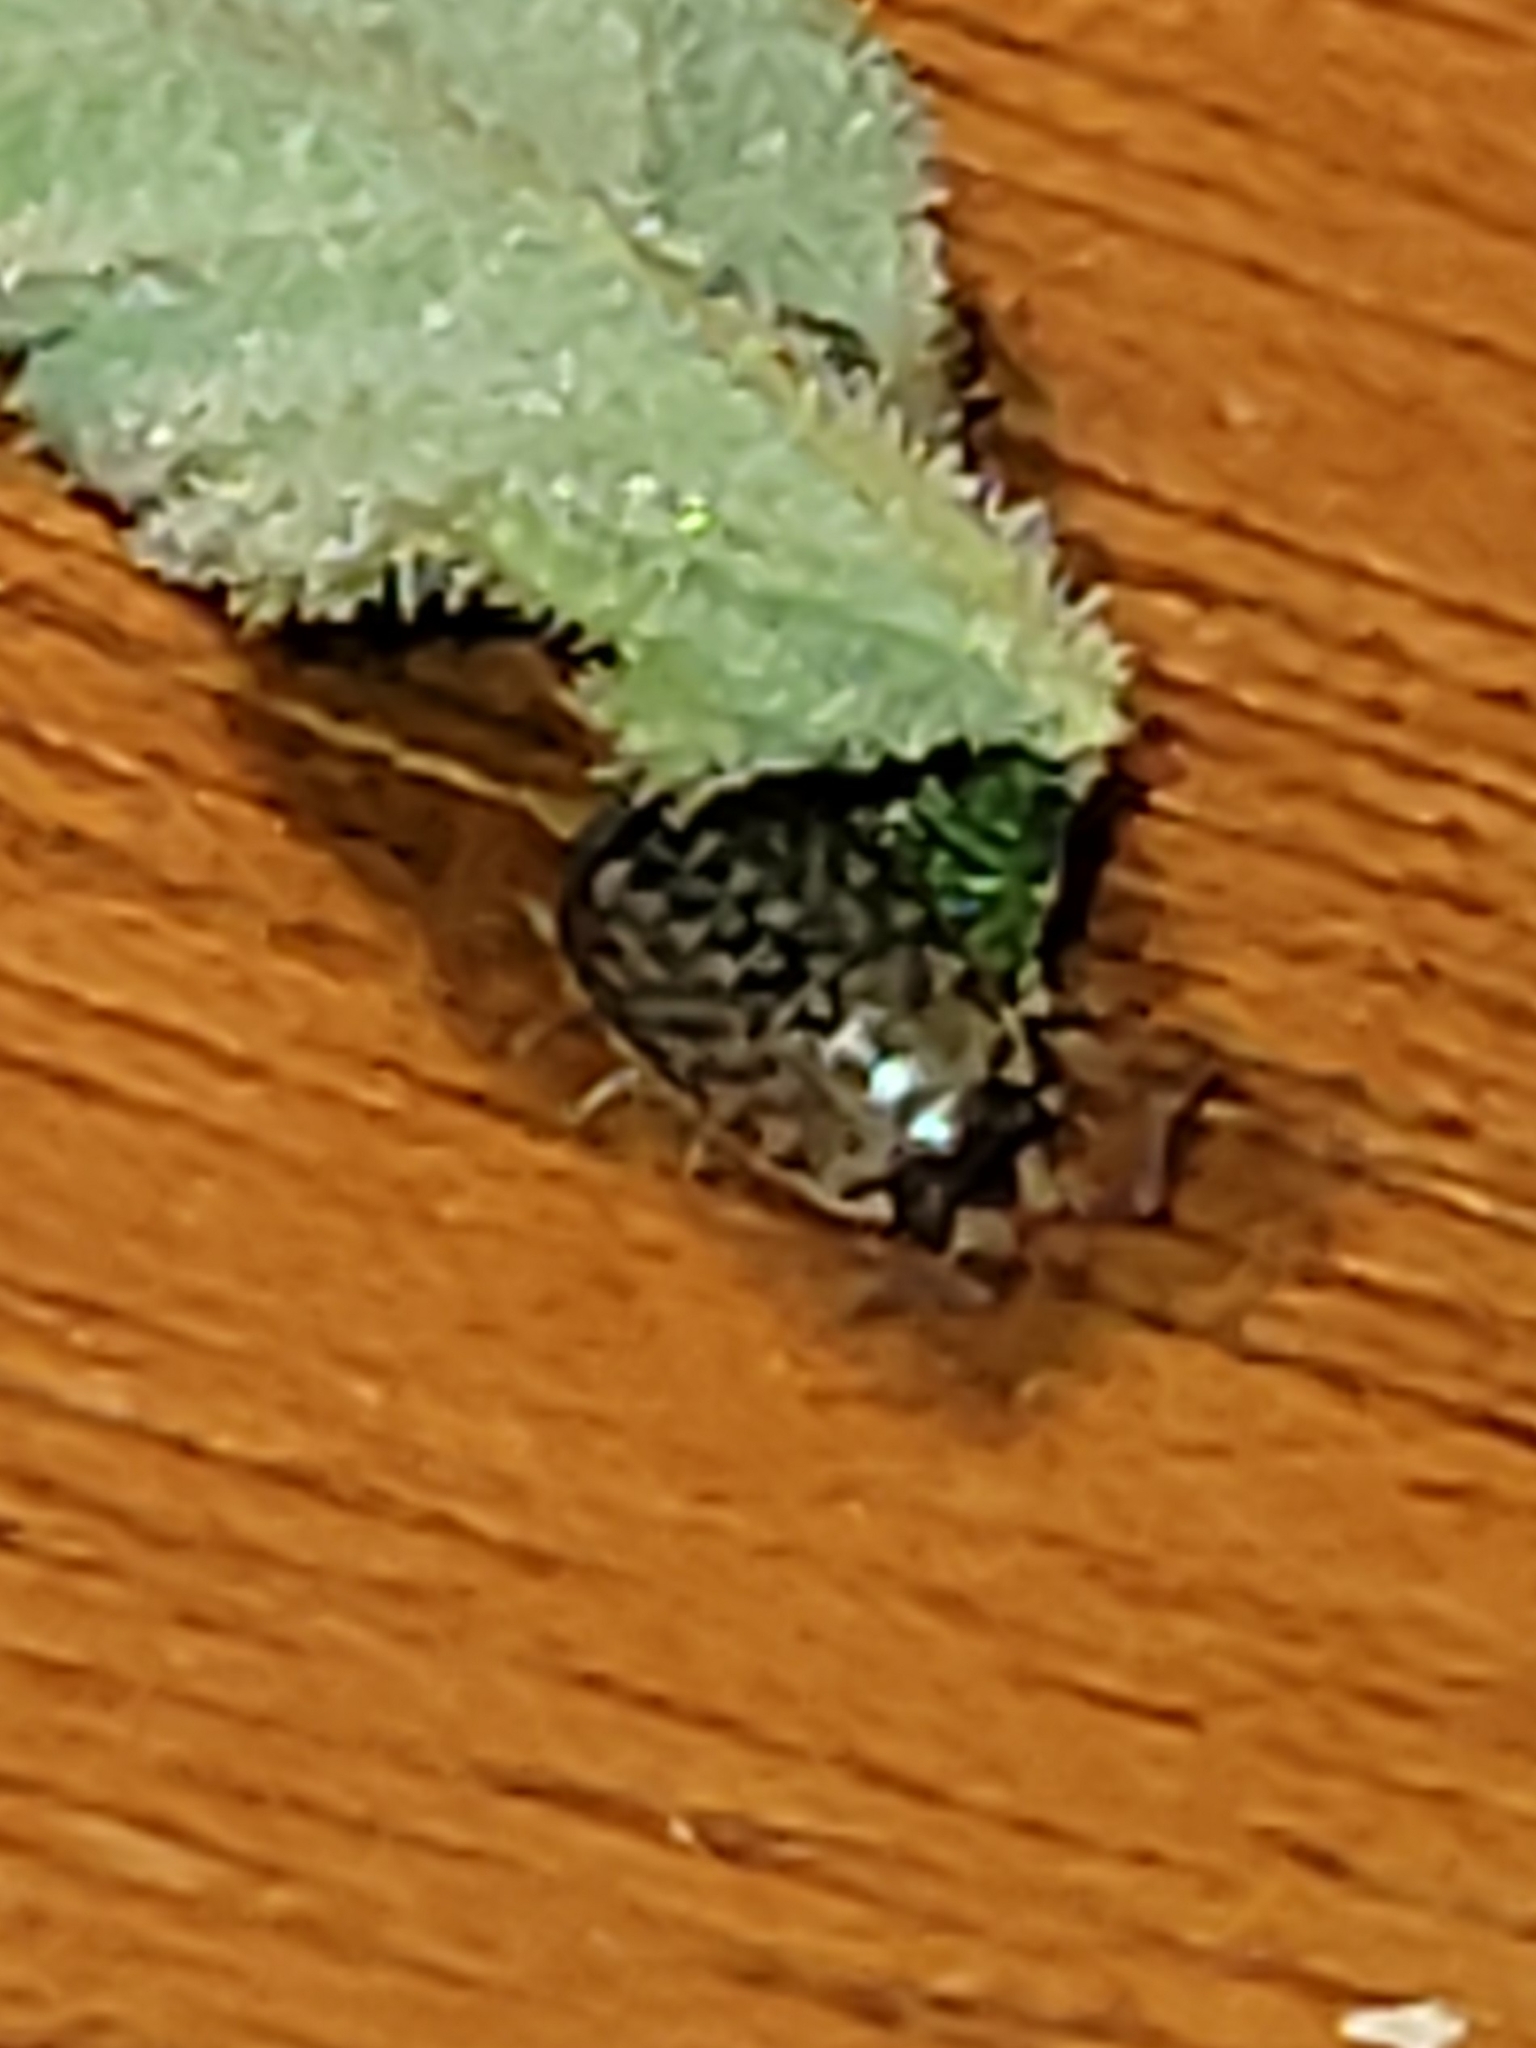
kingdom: Animalia
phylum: Arthropoda
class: Malacostraca
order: Isopoda
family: Philosciidae
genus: Philoscia
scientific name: Philoscia muscorum
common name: Common striped woodlouse
